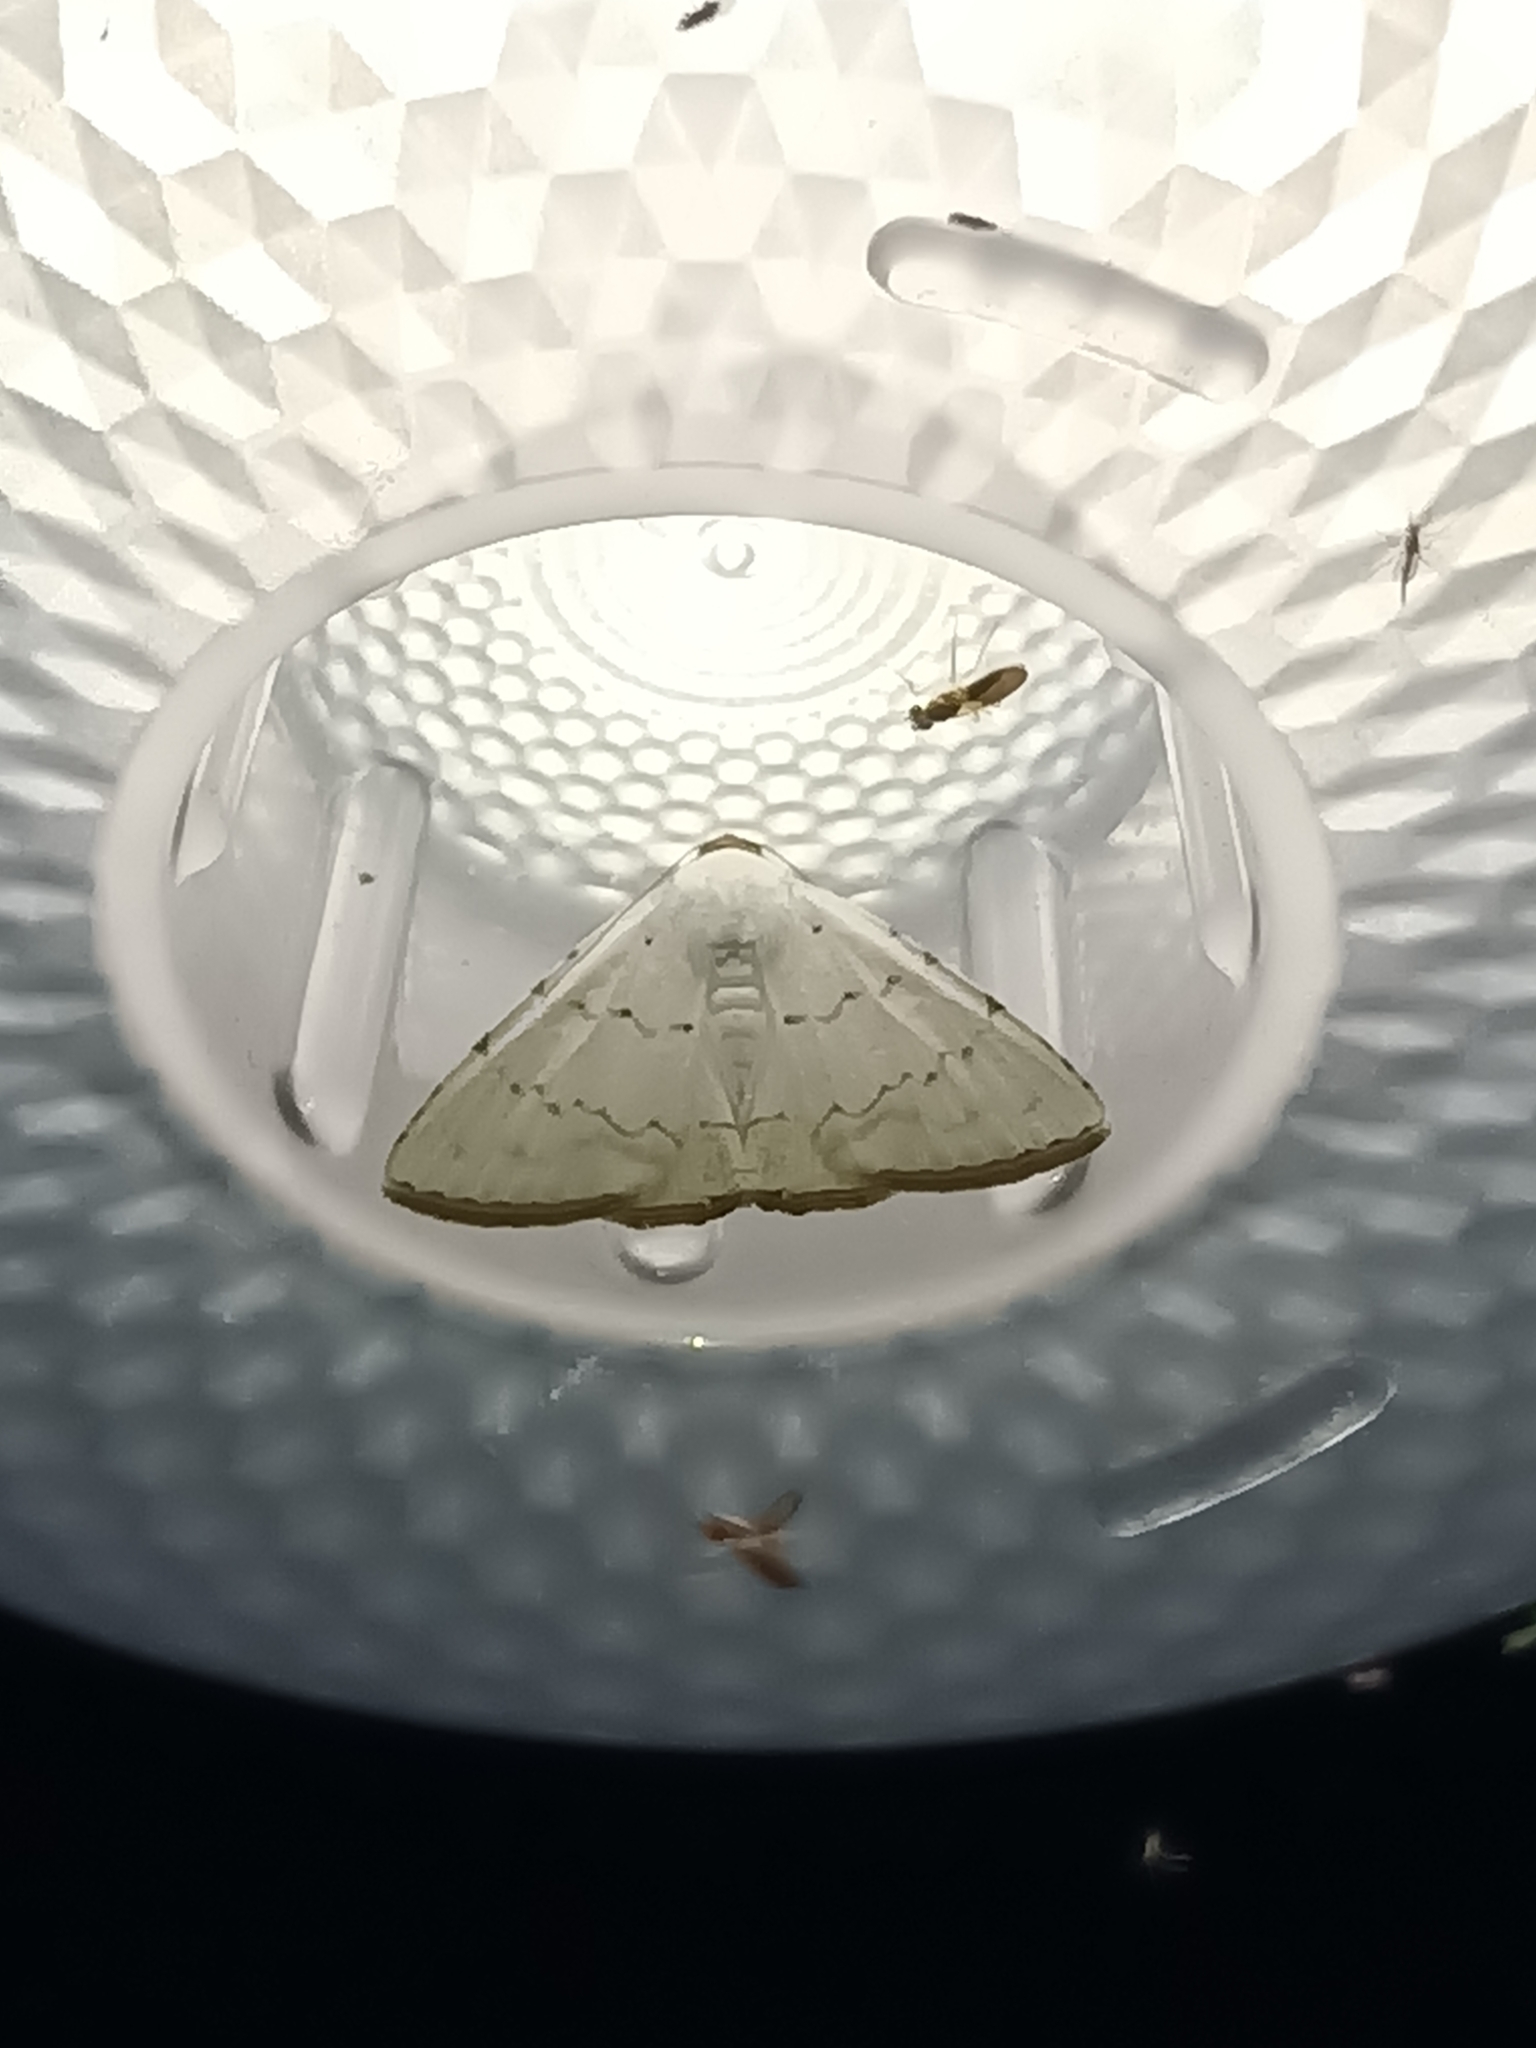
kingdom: Animalia
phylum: Arthropoda
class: Insecta
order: Lepidoptera
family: Erebidae
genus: Eulepidotis
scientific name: Eulepidotis albidus
